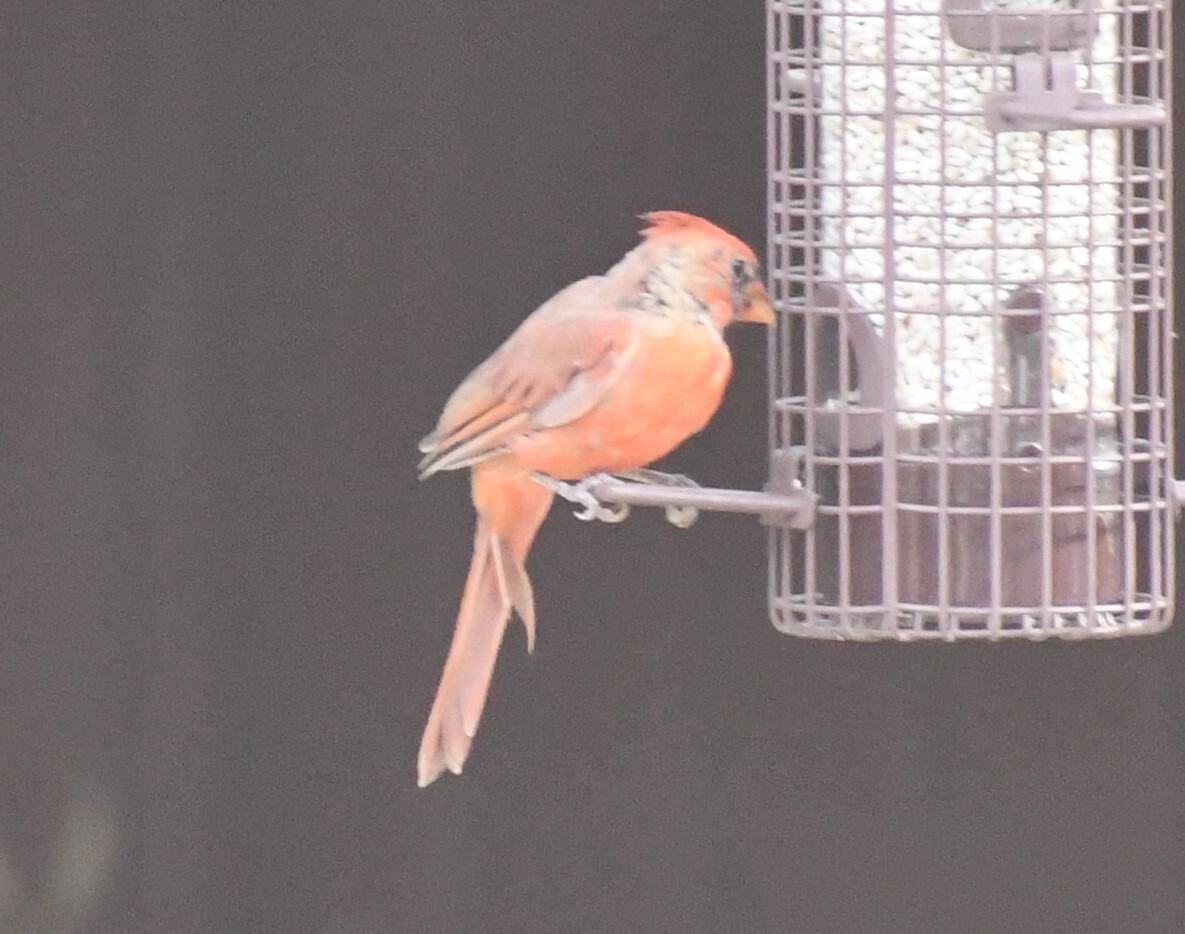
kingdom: Animalia
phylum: Chordata
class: Aves
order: Passeriformes
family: Cardinalidae
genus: Cardinalis
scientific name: Cardinalis cardinalis
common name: Northern cardinal
